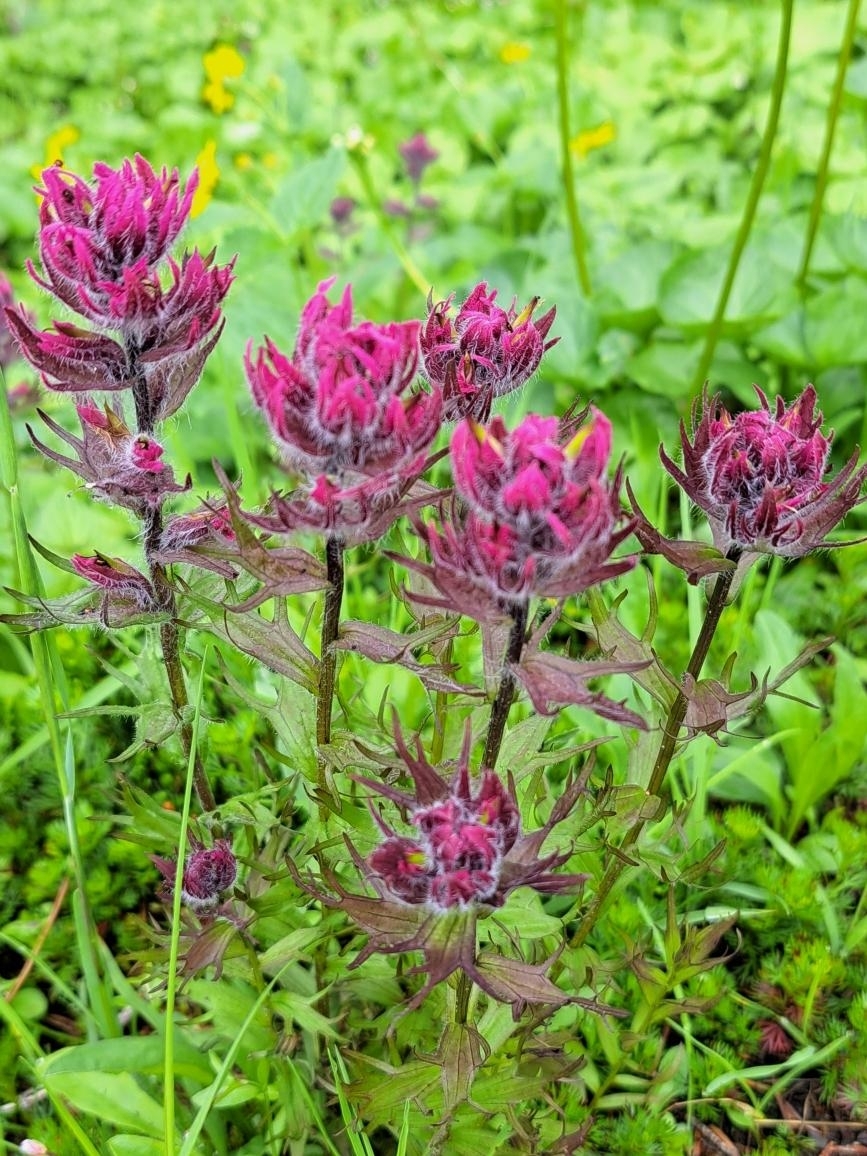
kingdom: Plantae
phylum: Tracheophyta
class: Magnoliopsida
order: Lamiales
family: Orobanchaceae
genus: Castilleja
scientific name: Castilleja parviflora
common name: Mountain paintbrush
